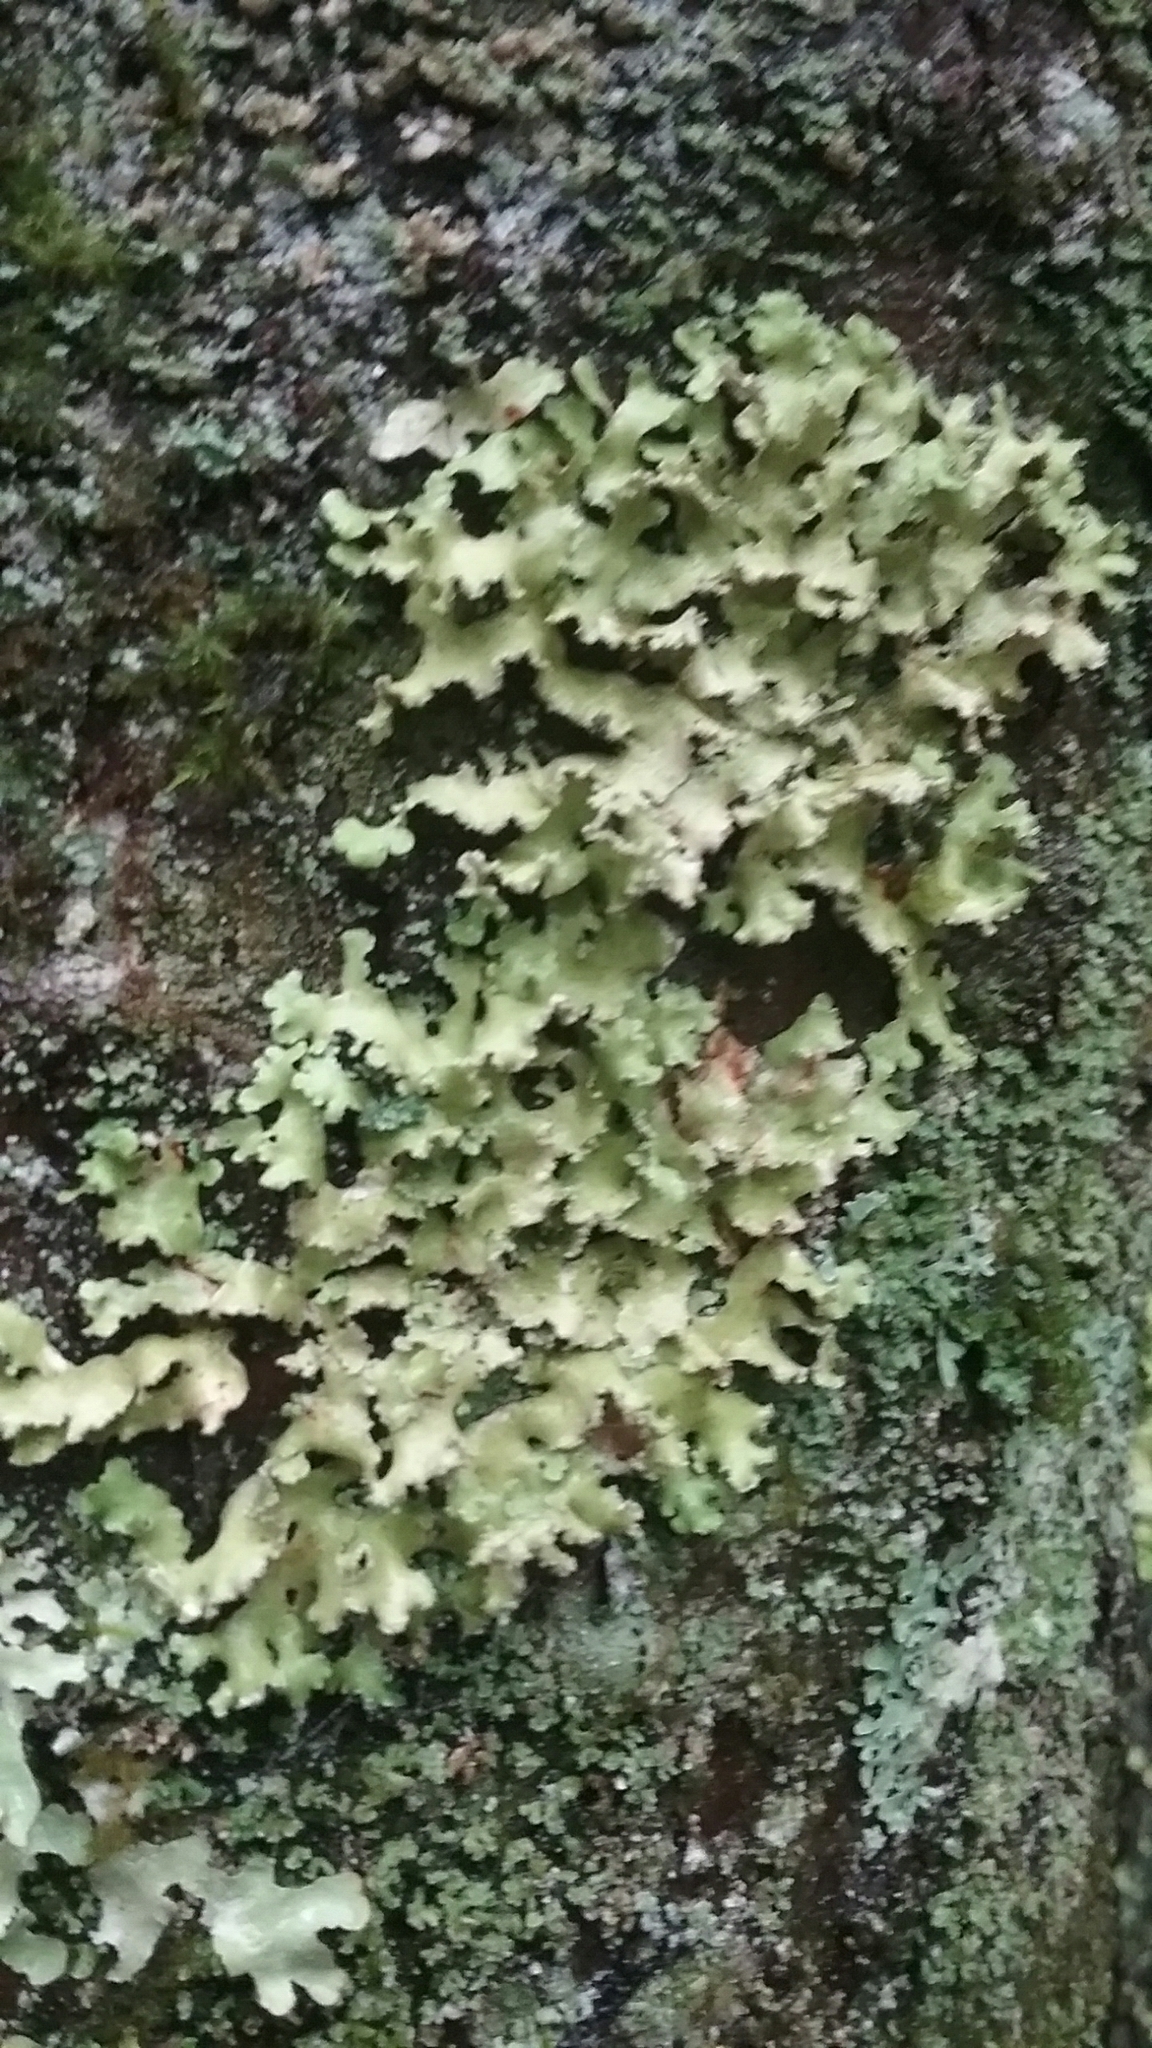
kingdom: Fungi
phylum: Ascomycota
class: Lecanoromycetes
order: Lecanorales
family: Parmeliaceae
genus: Usnocetraria
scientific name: Usnocetraria oakesiana
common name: Yellow ribbon lichen
